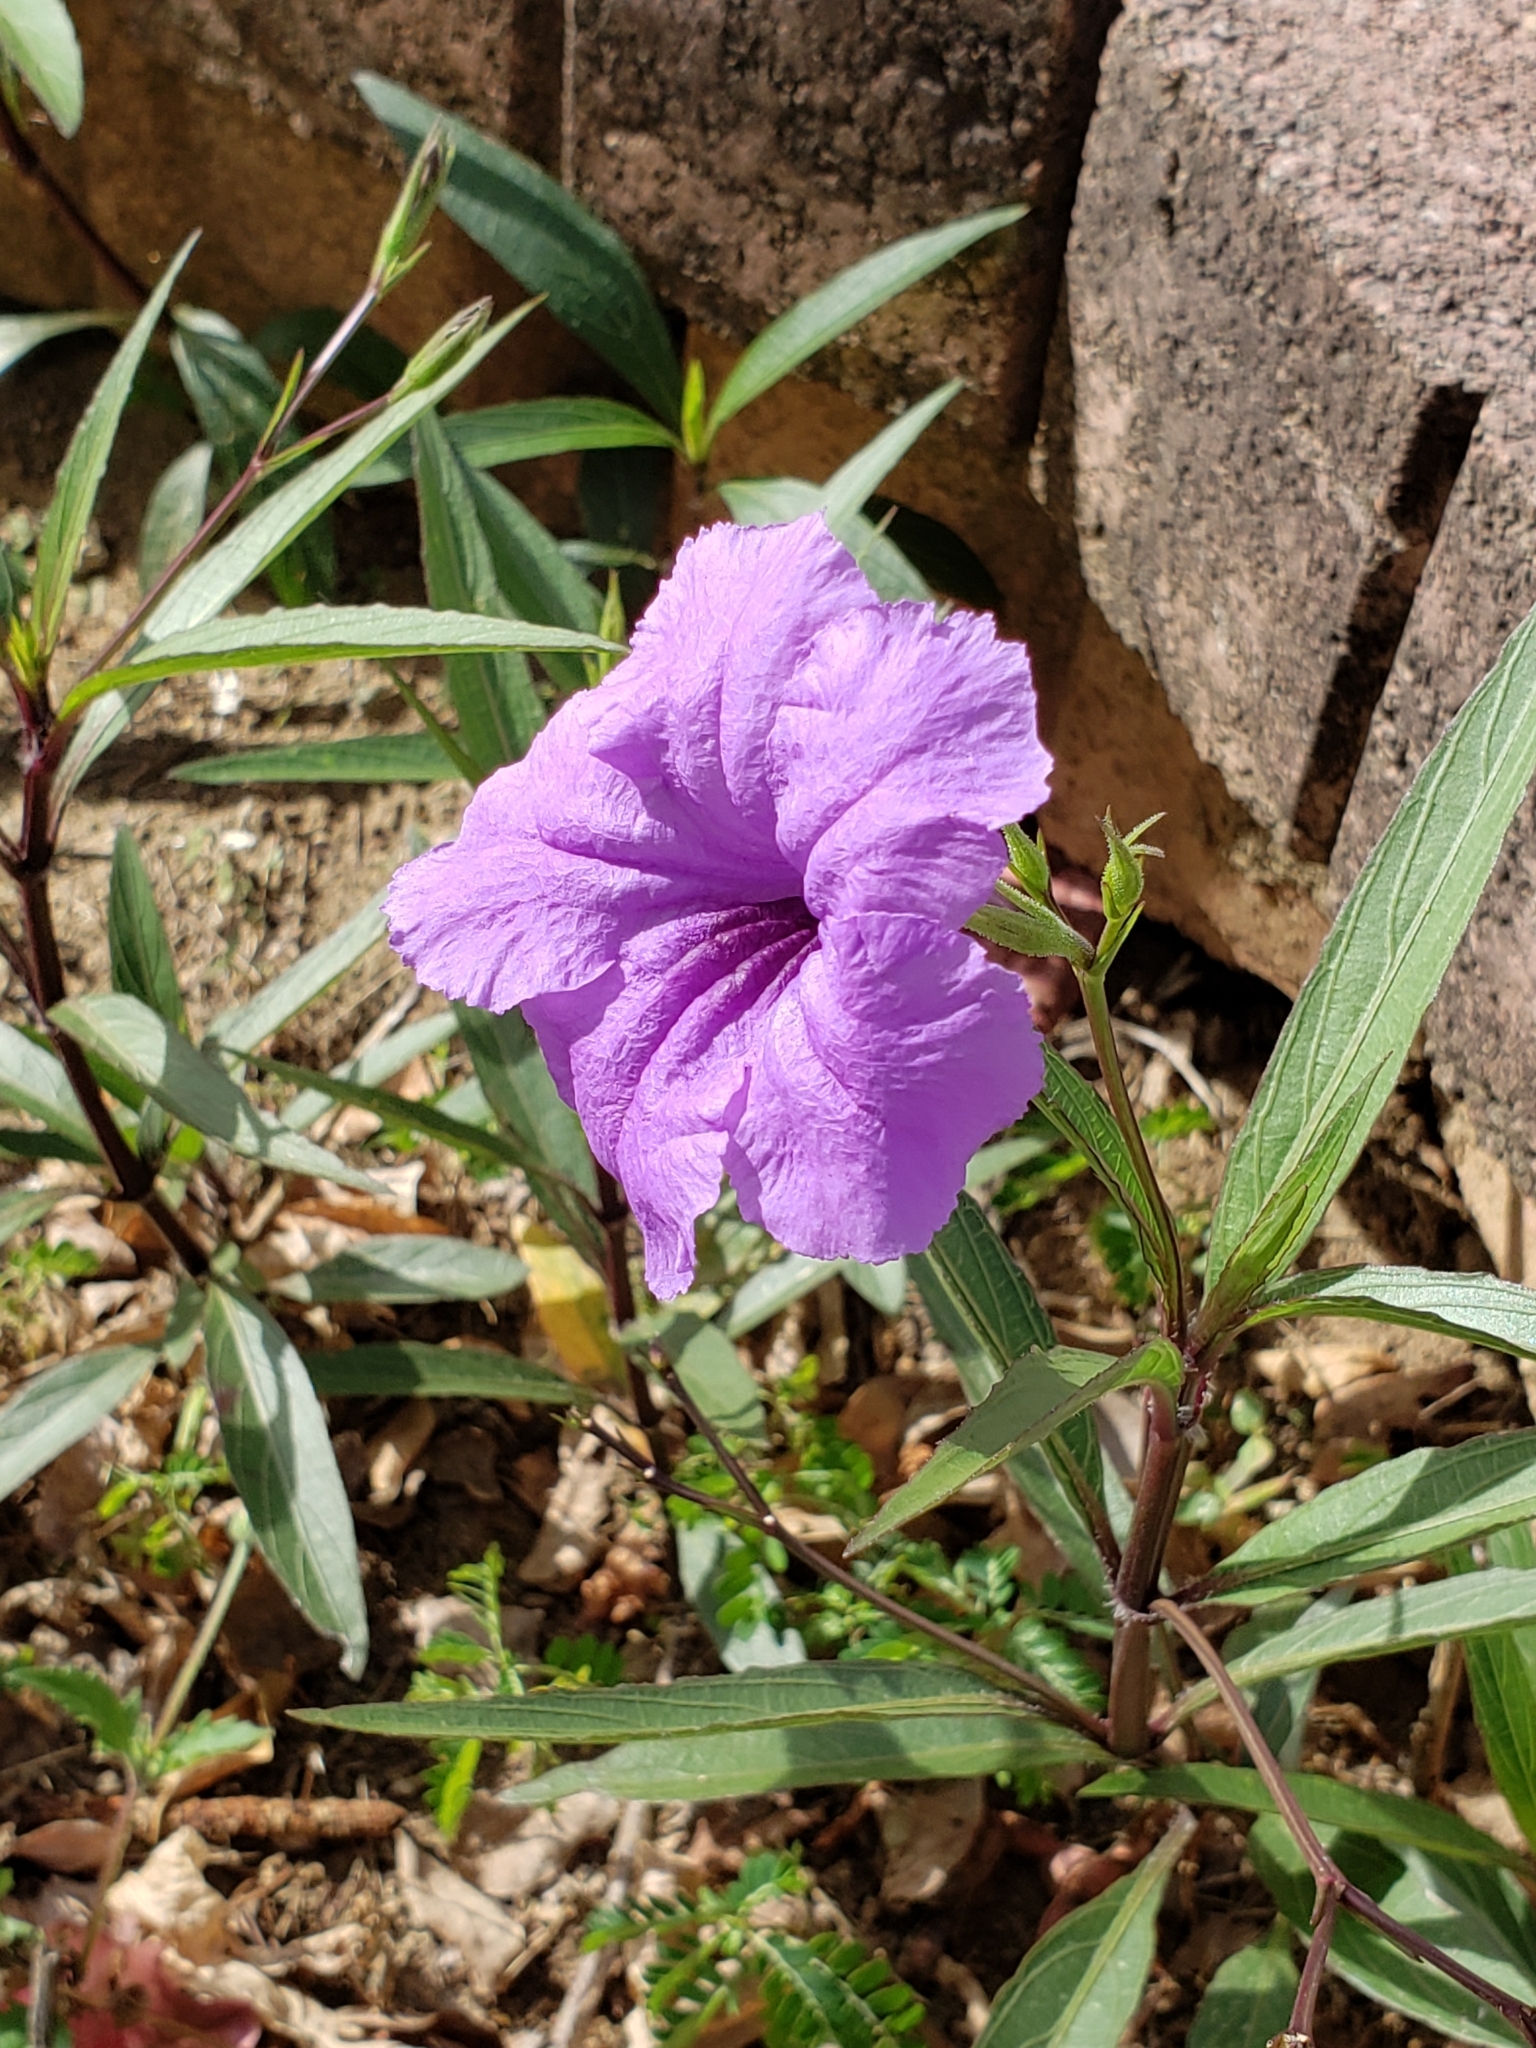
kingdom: Plantae
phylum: Tracheophyta
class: Magnoliopsida
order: Lamiales
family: Acanthaceae
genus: Ruellia
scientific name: Ruellia simplex
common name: Softseed wild petunia
